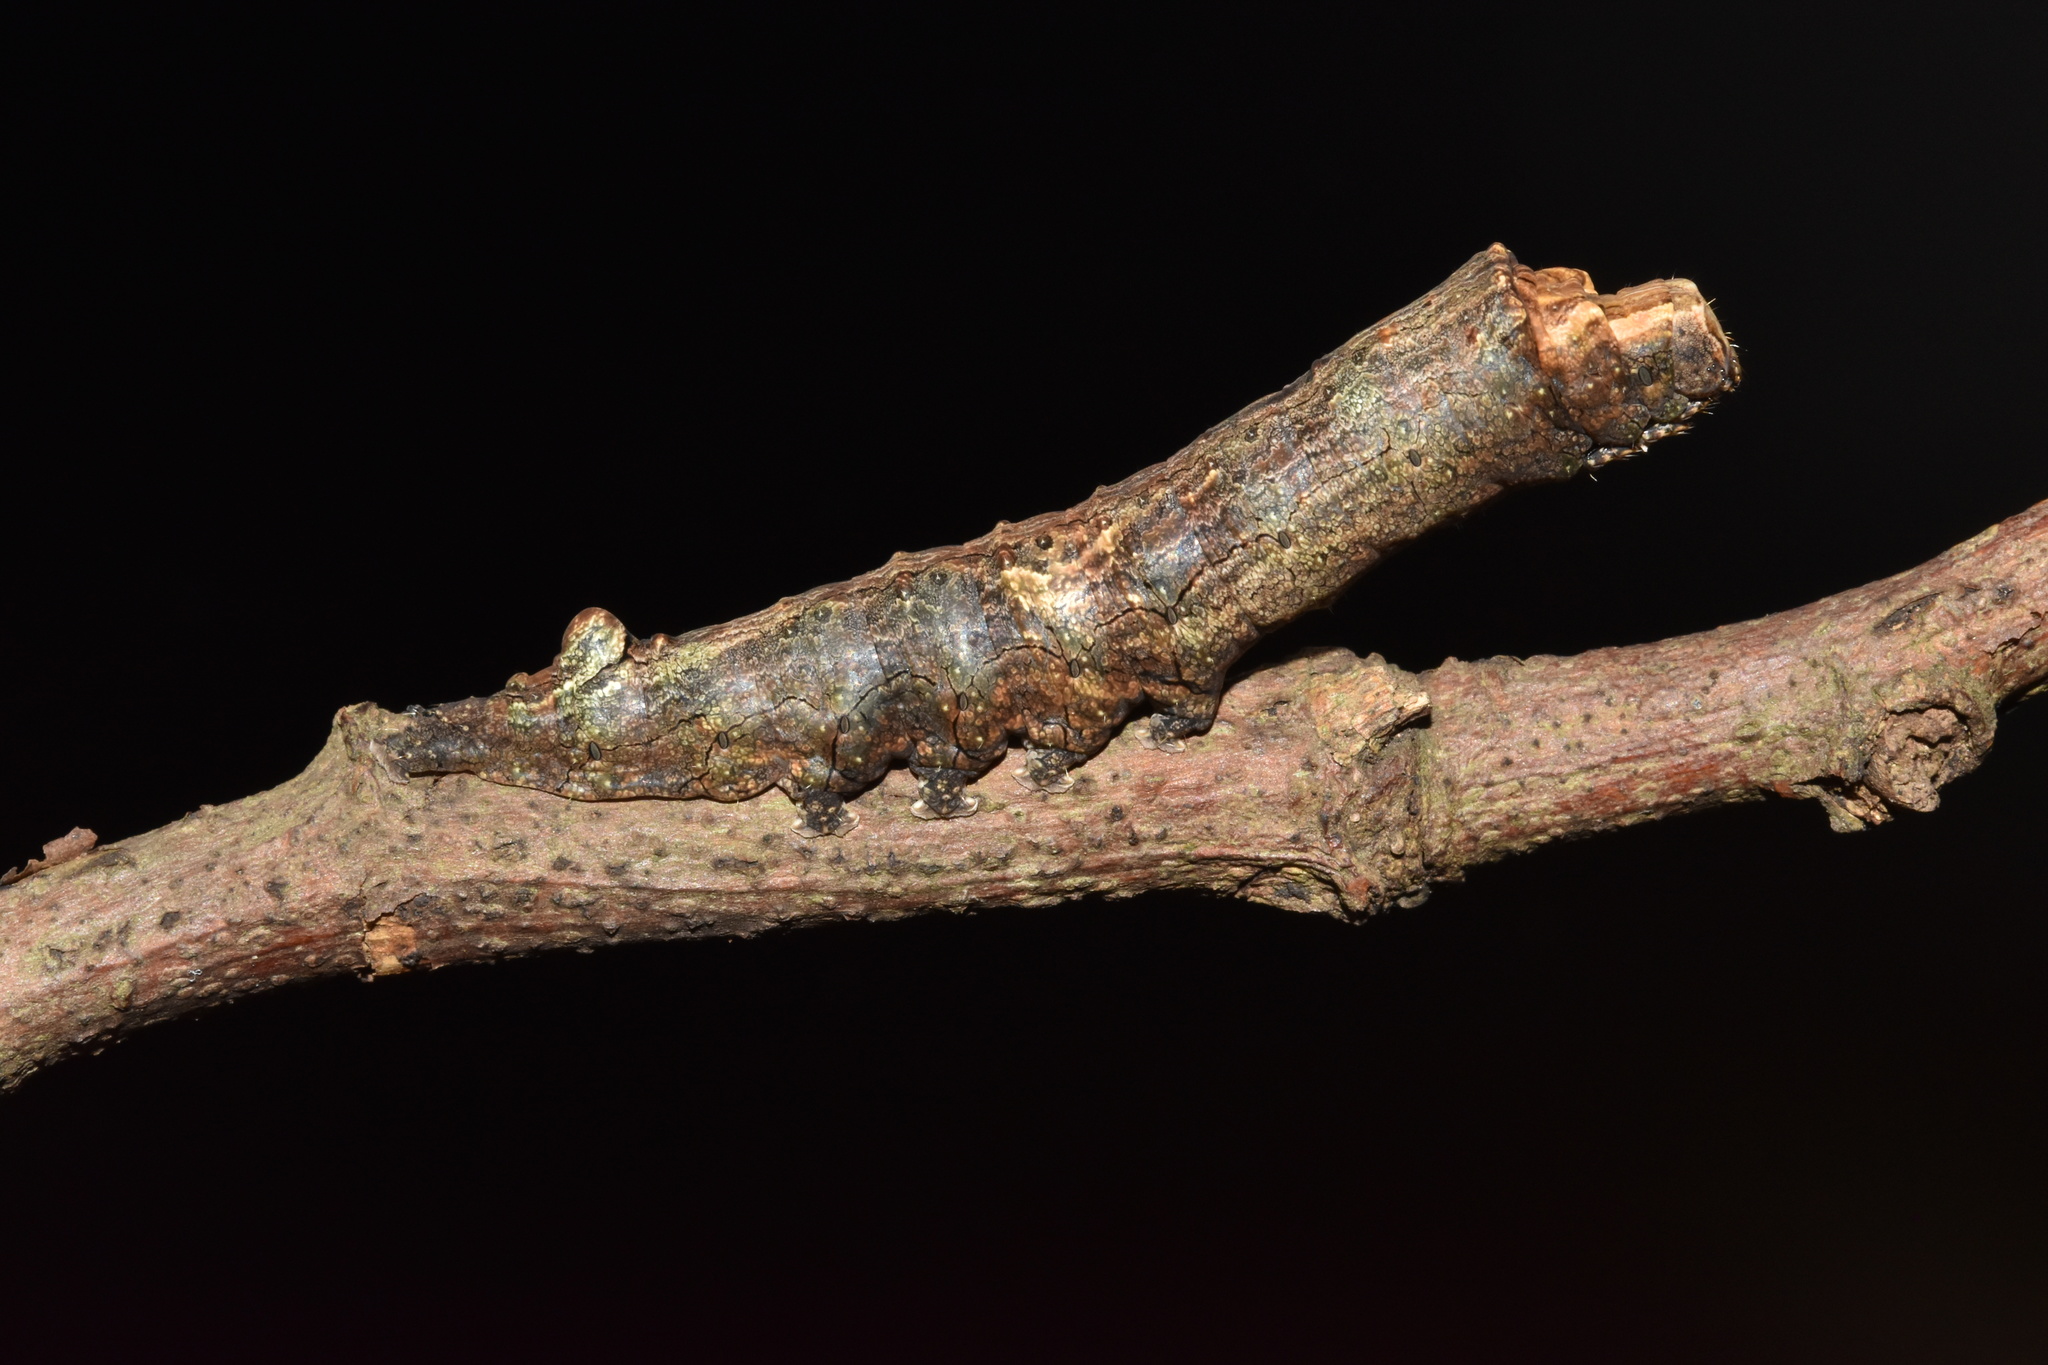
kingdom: Animalia
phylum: Arthropoda
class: Insecta
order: Lepidoptera
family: Erebidae
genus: Antiophlebia
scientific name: Antiophlebia bracteata
